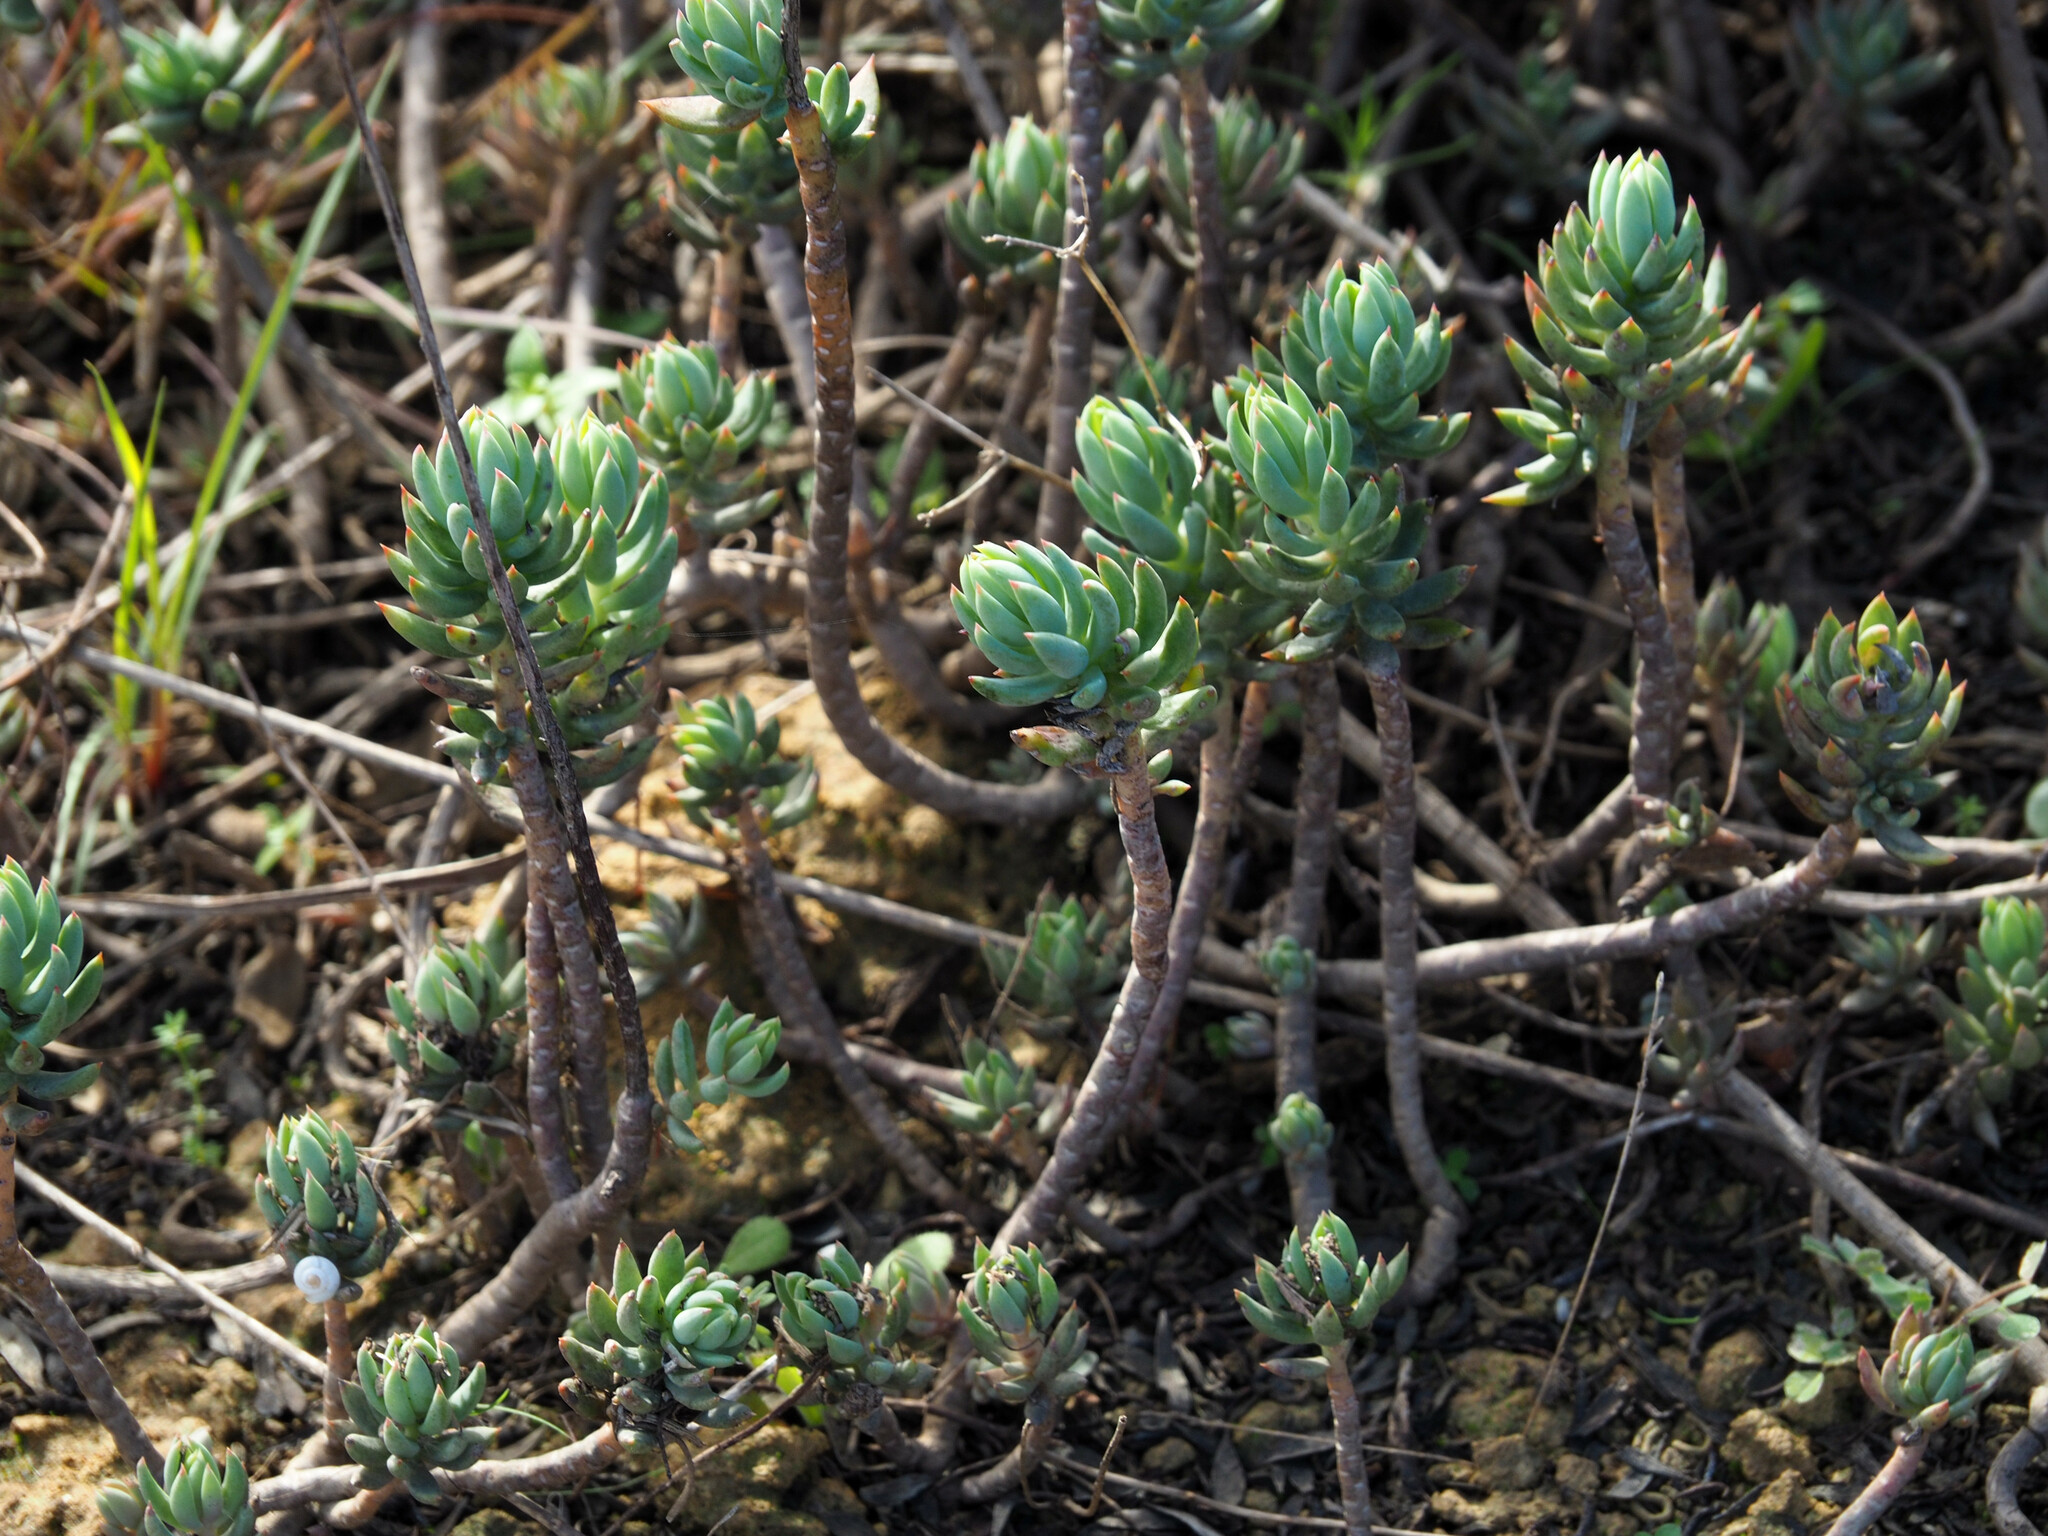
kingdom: Plantae
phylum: Tracheophyta
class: Magnoliopsida
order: Saxifragales
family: Crassulaceae
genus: Petrosedum
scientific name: Petrosedum sediforme
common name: Pale stonecrop
